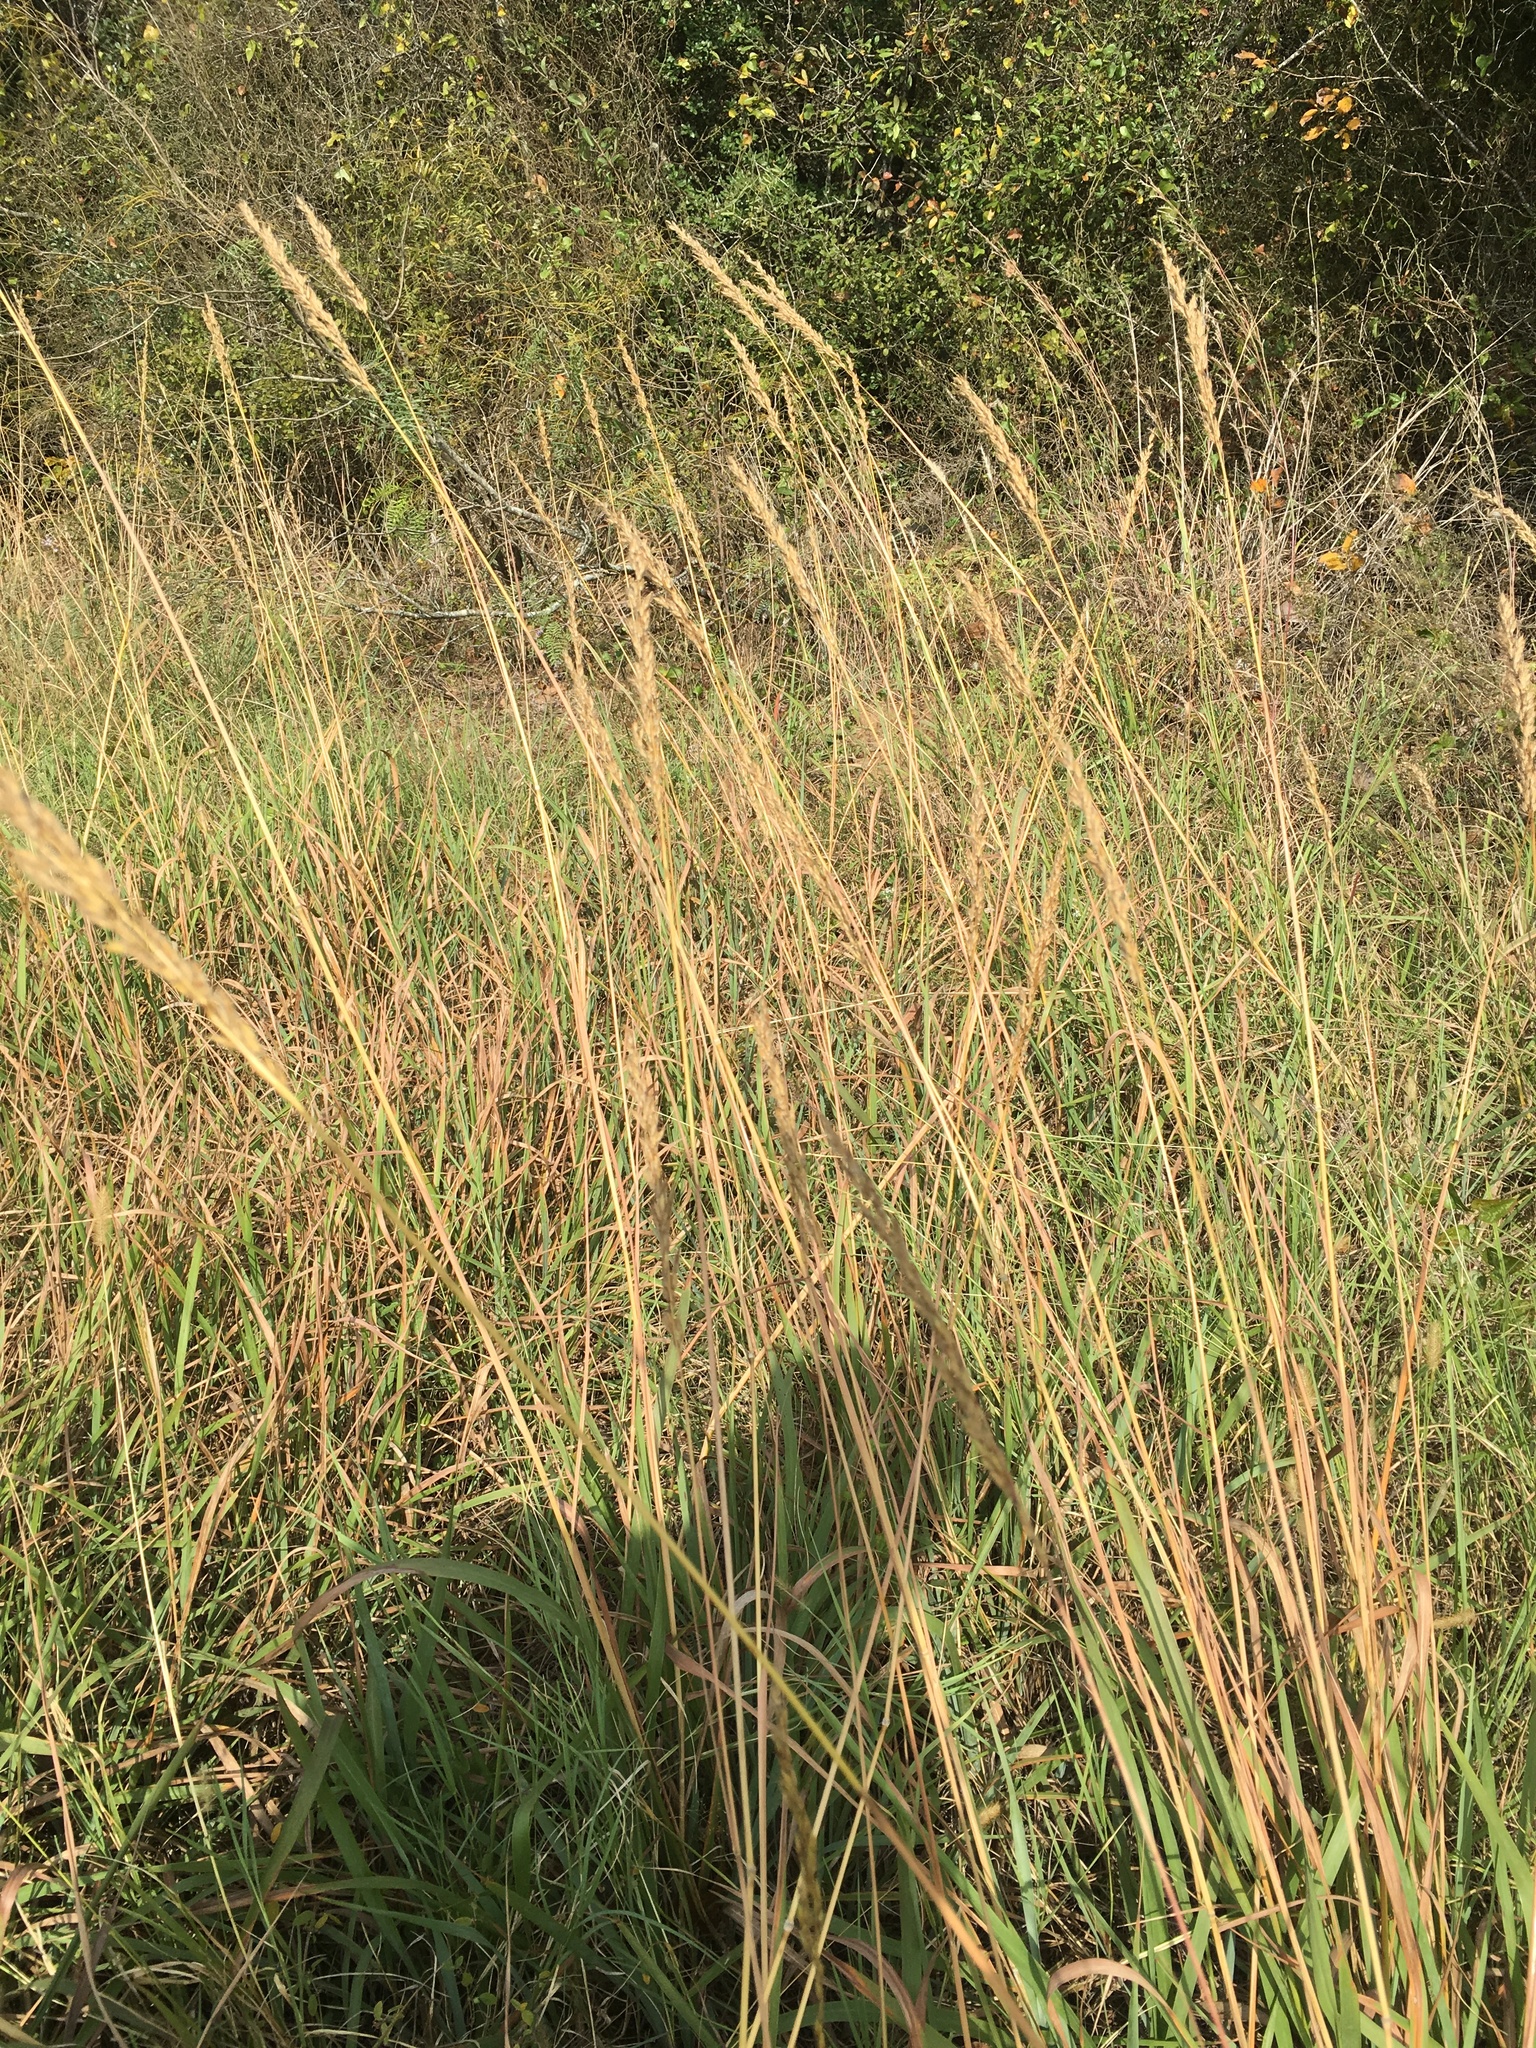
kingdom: Plantae
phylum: Tracheophyta
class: Liliopsida
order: Poales
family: Poaceae
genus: Sorghastrum
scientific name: Sorghastrum nutans
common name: Indian grass
